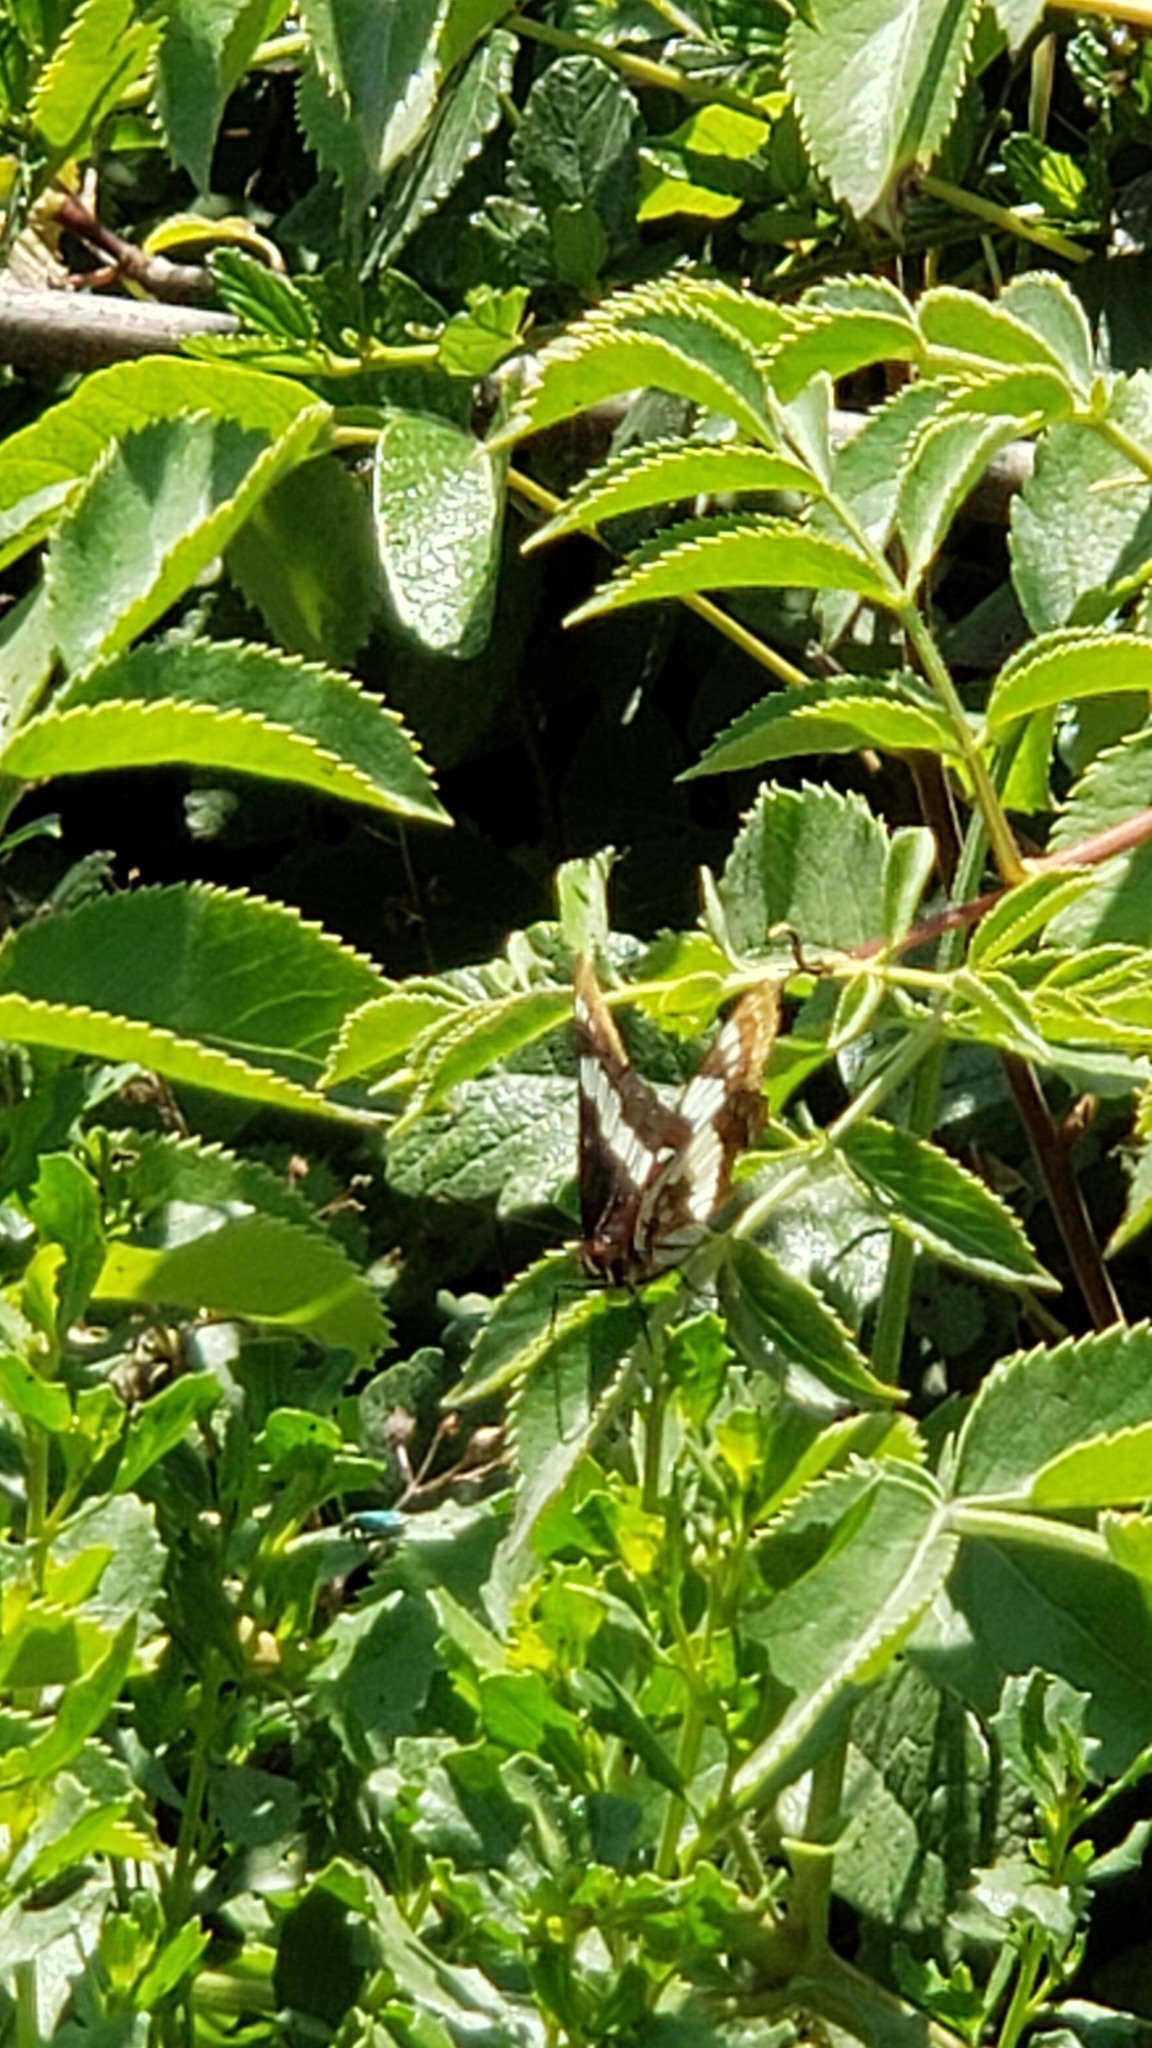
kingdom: Animalia
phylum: Arthropoda
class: Insecta
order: Lepidoptera
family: Nymphalidae
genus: Limenitis
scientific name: Limenitis lorquini
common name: Lorquin's admiral
